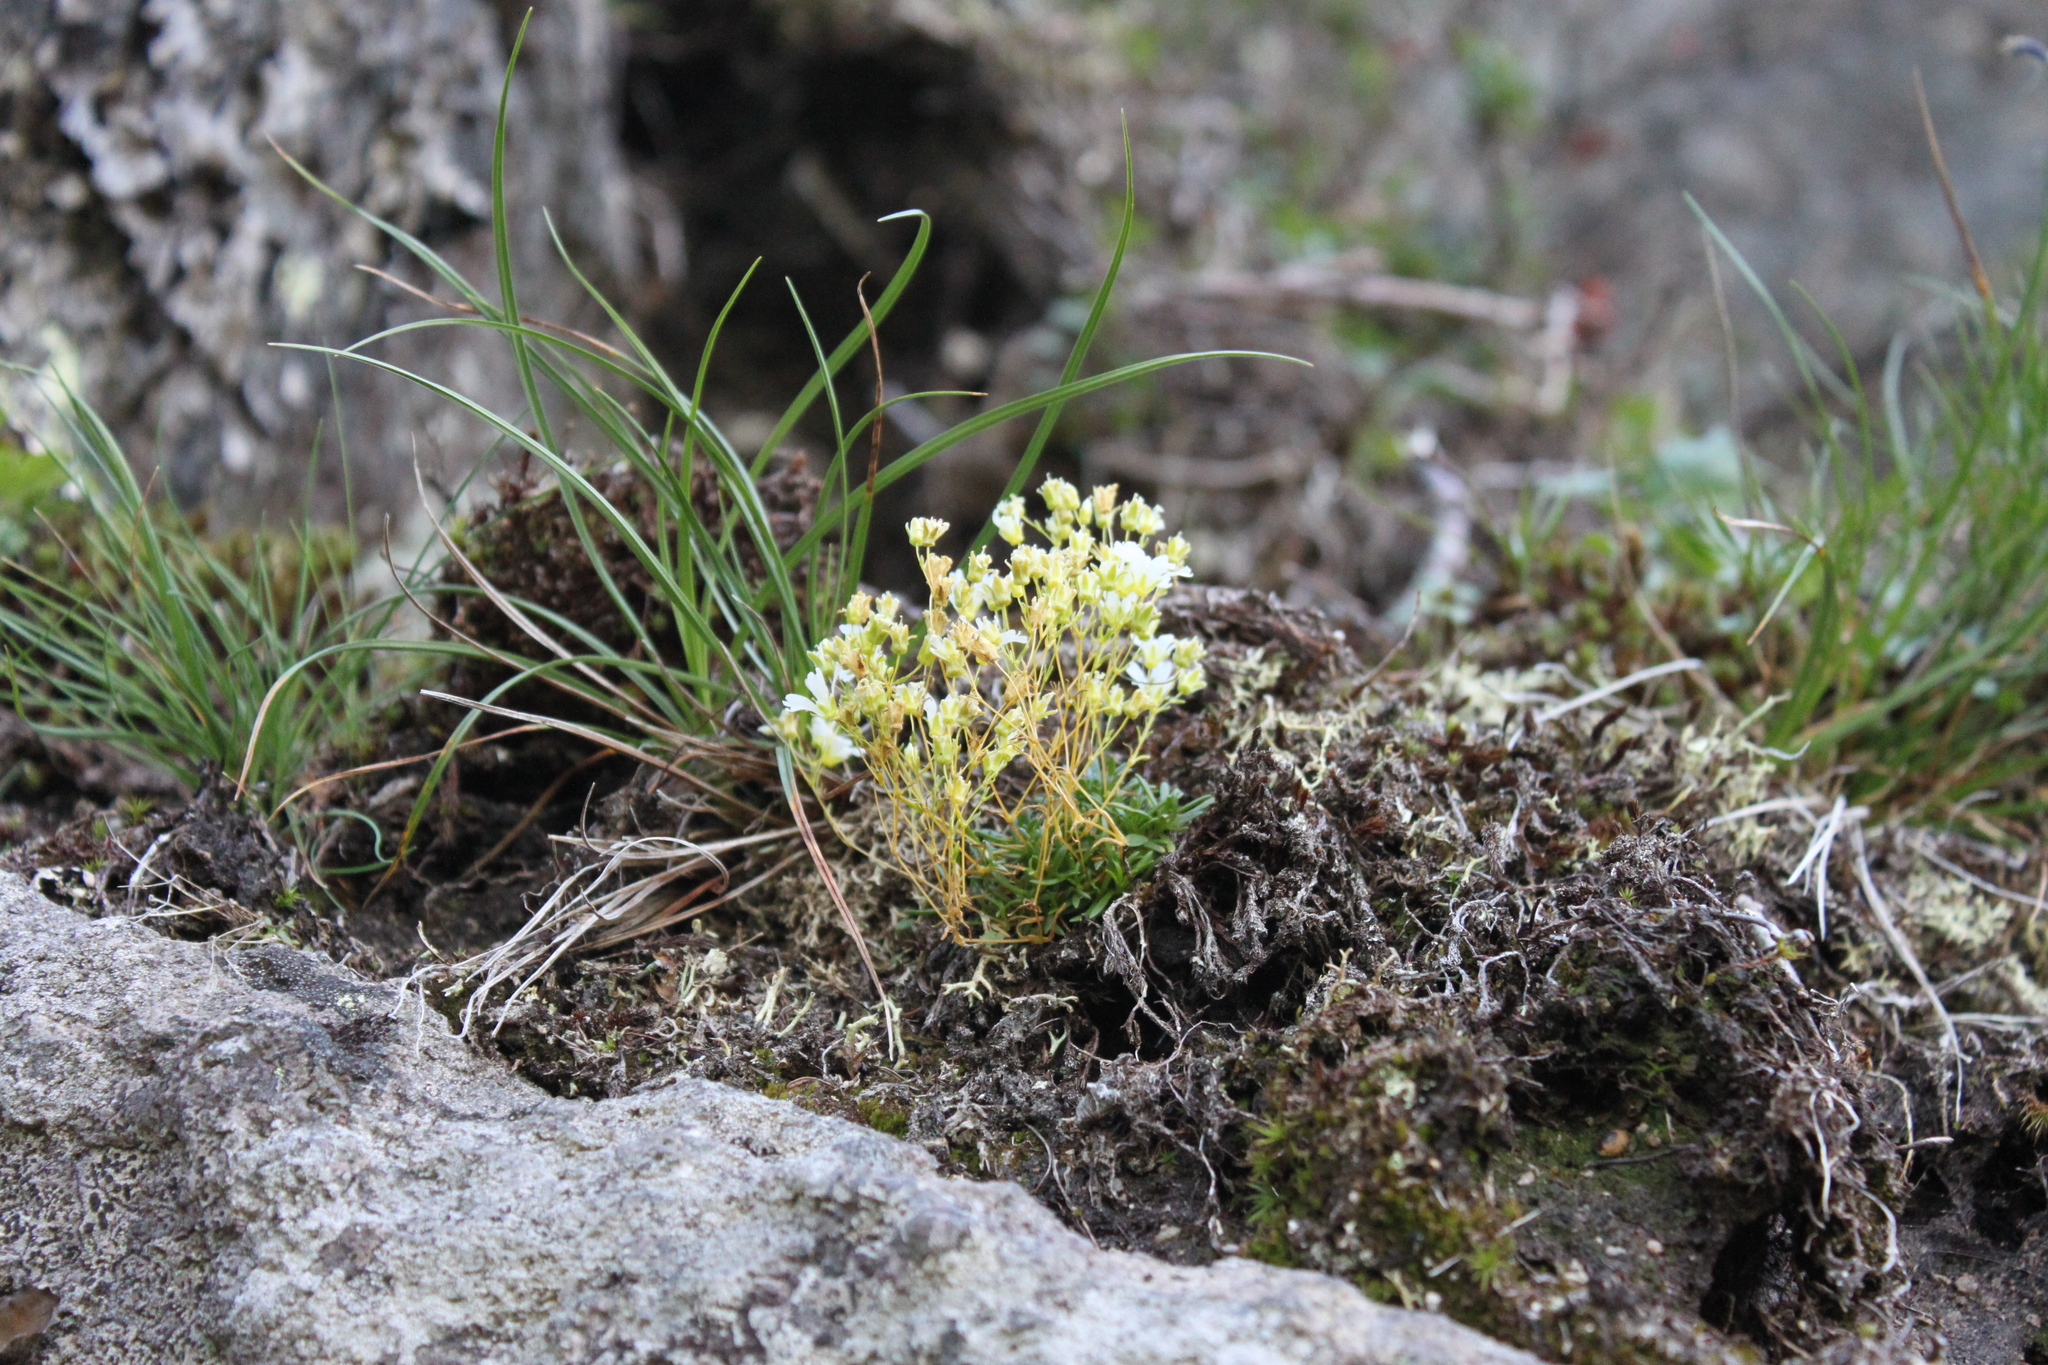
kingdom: Plantae
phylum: Tracheophyta
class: Magnoliopsida
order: Caryophyllales
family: Caryophyllaceae
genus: Geocarpon
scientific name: Geocarpon groenlandicum
